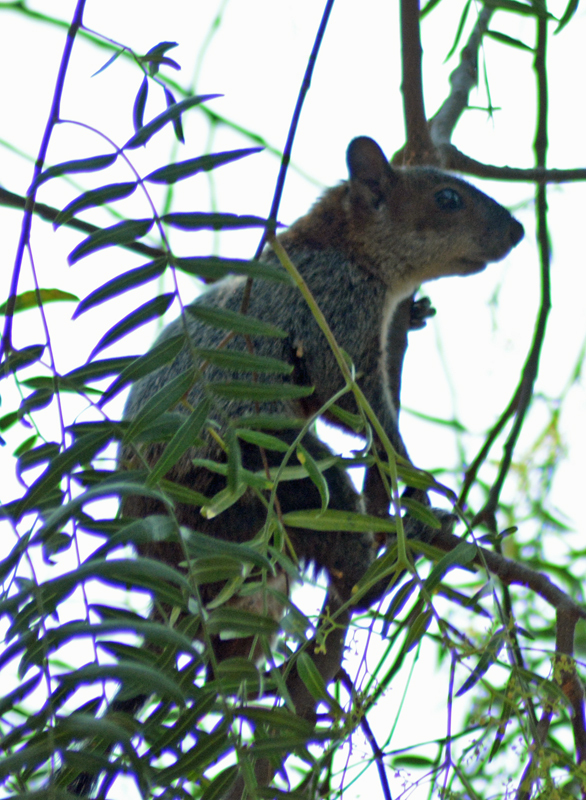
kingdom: Animalia
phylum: Chordata
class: Mammalia
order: Rodentia
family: Sciuridae
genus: Sciurus
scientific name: Sciurus aureogaster
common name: Red-bellied squirrel
